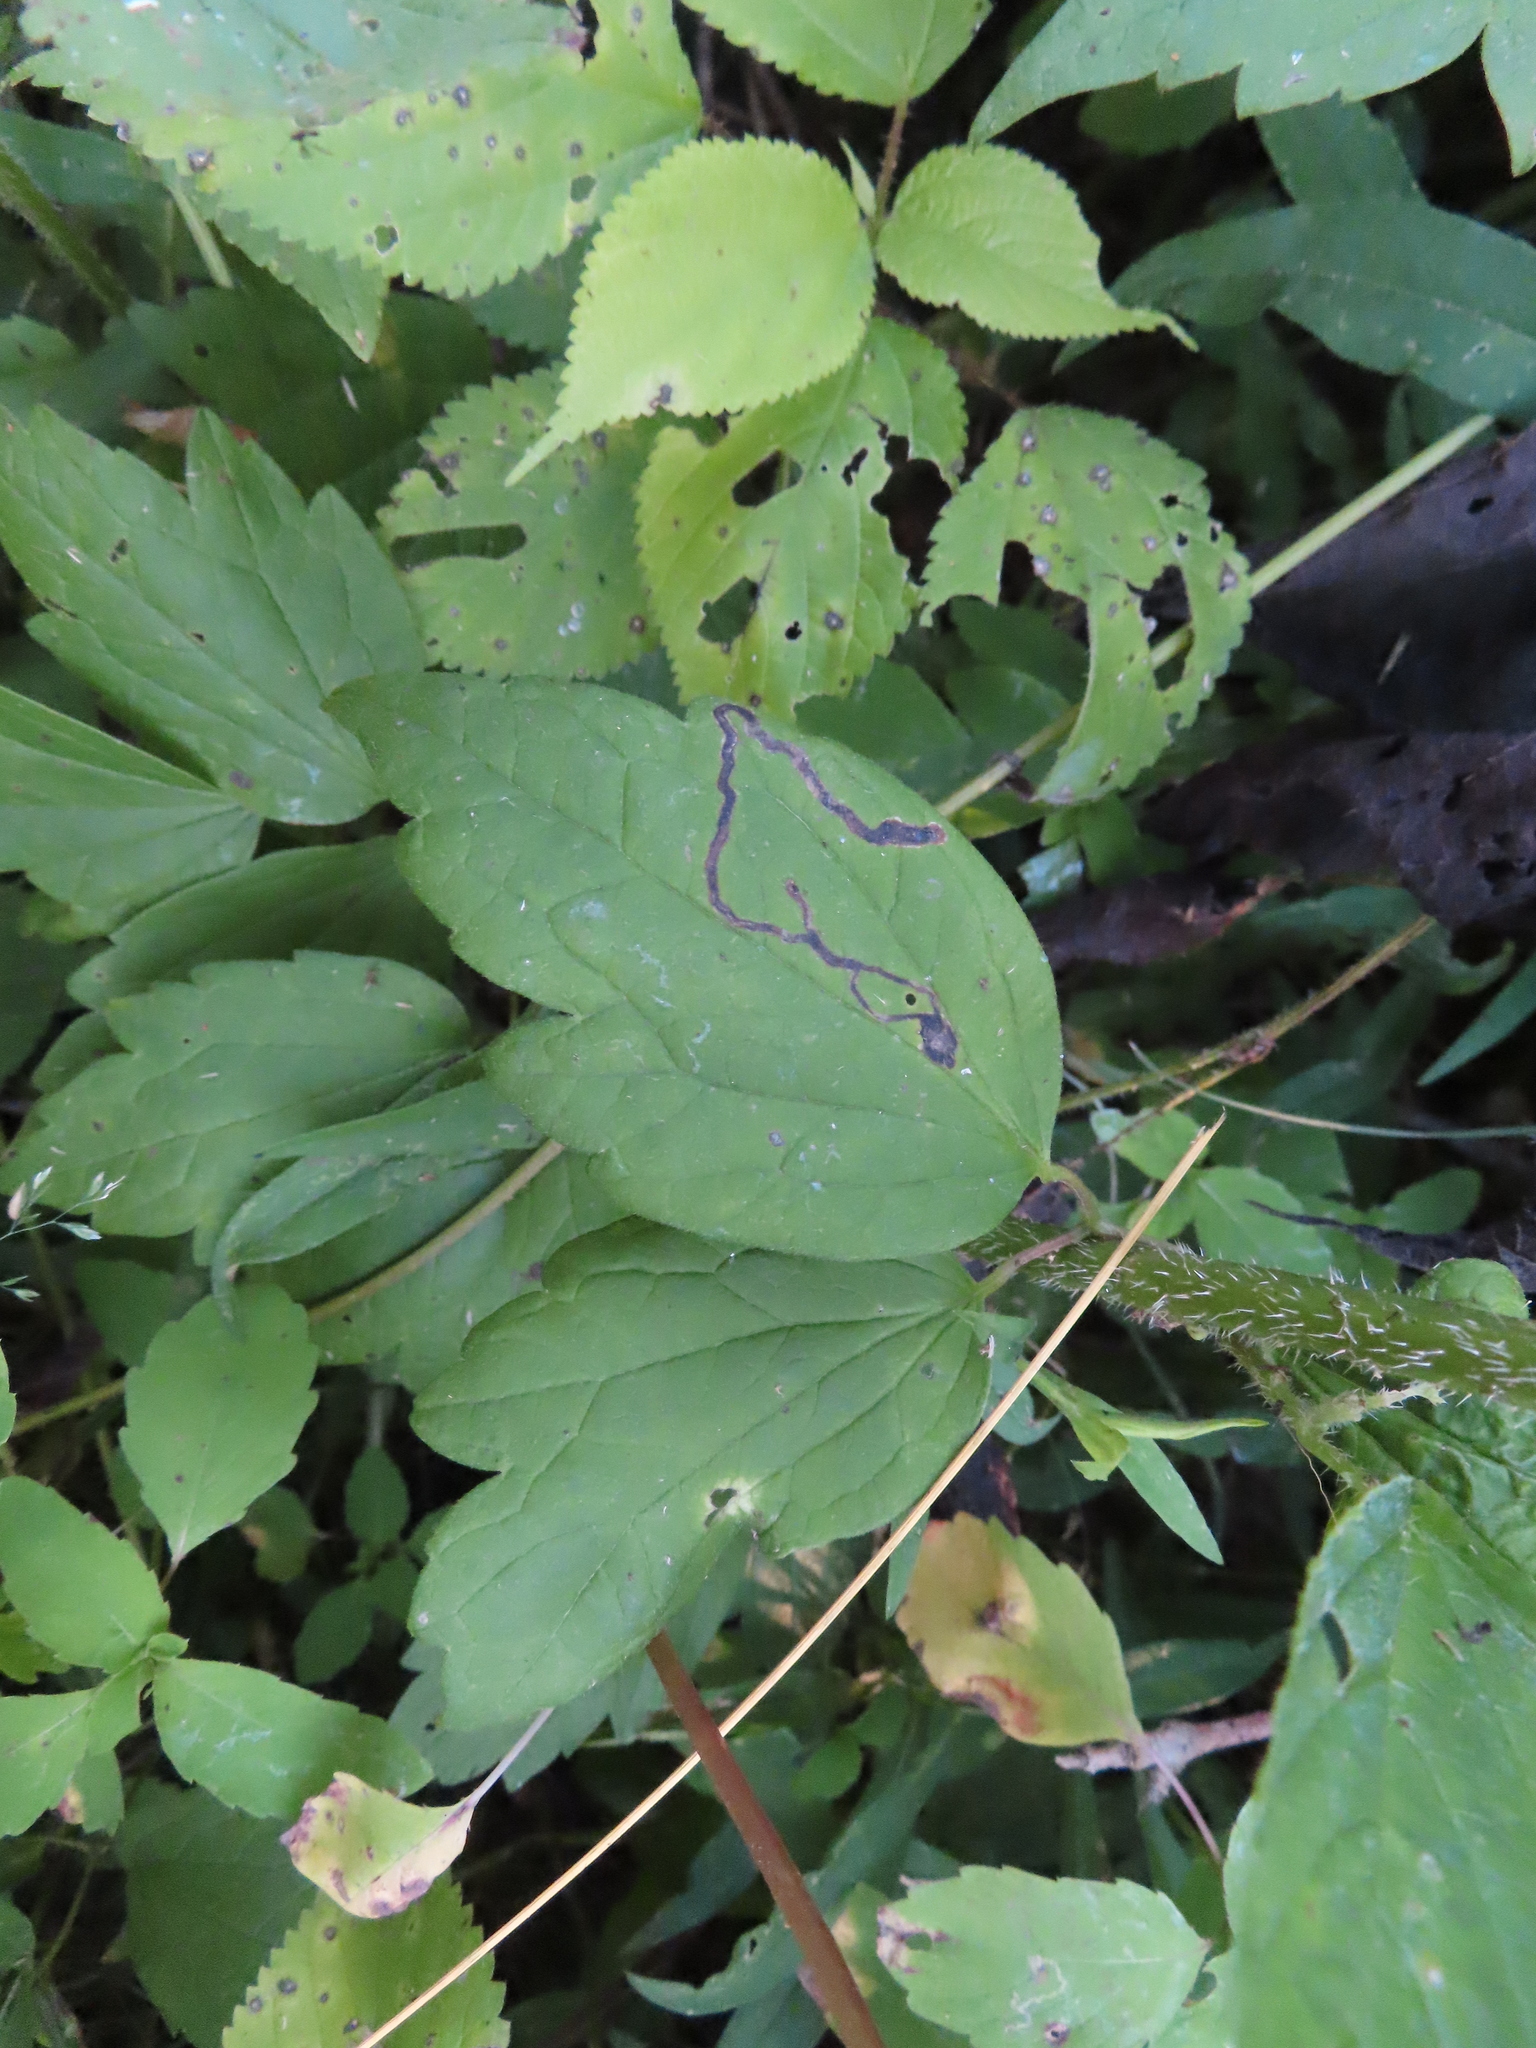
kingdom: Animalia
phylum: Arthropoda
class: Insecta
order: Diptera
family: Agromyzidae
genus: Phytomyza
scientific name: Phytomyza loewii
